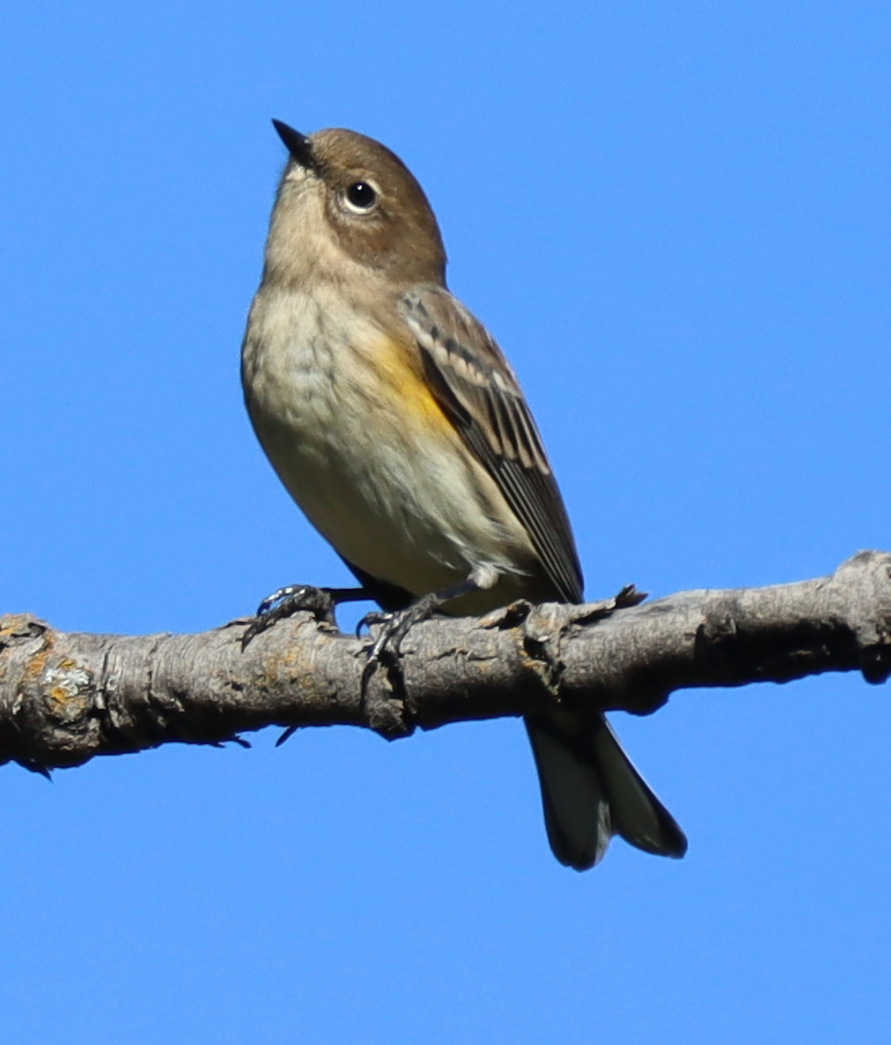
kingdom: Animalia
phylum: Chordata
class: Aves
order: Passeriformes
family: Parulidae
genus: Setophaga
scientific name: Setophaga coronata
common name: Myrtle warbler
